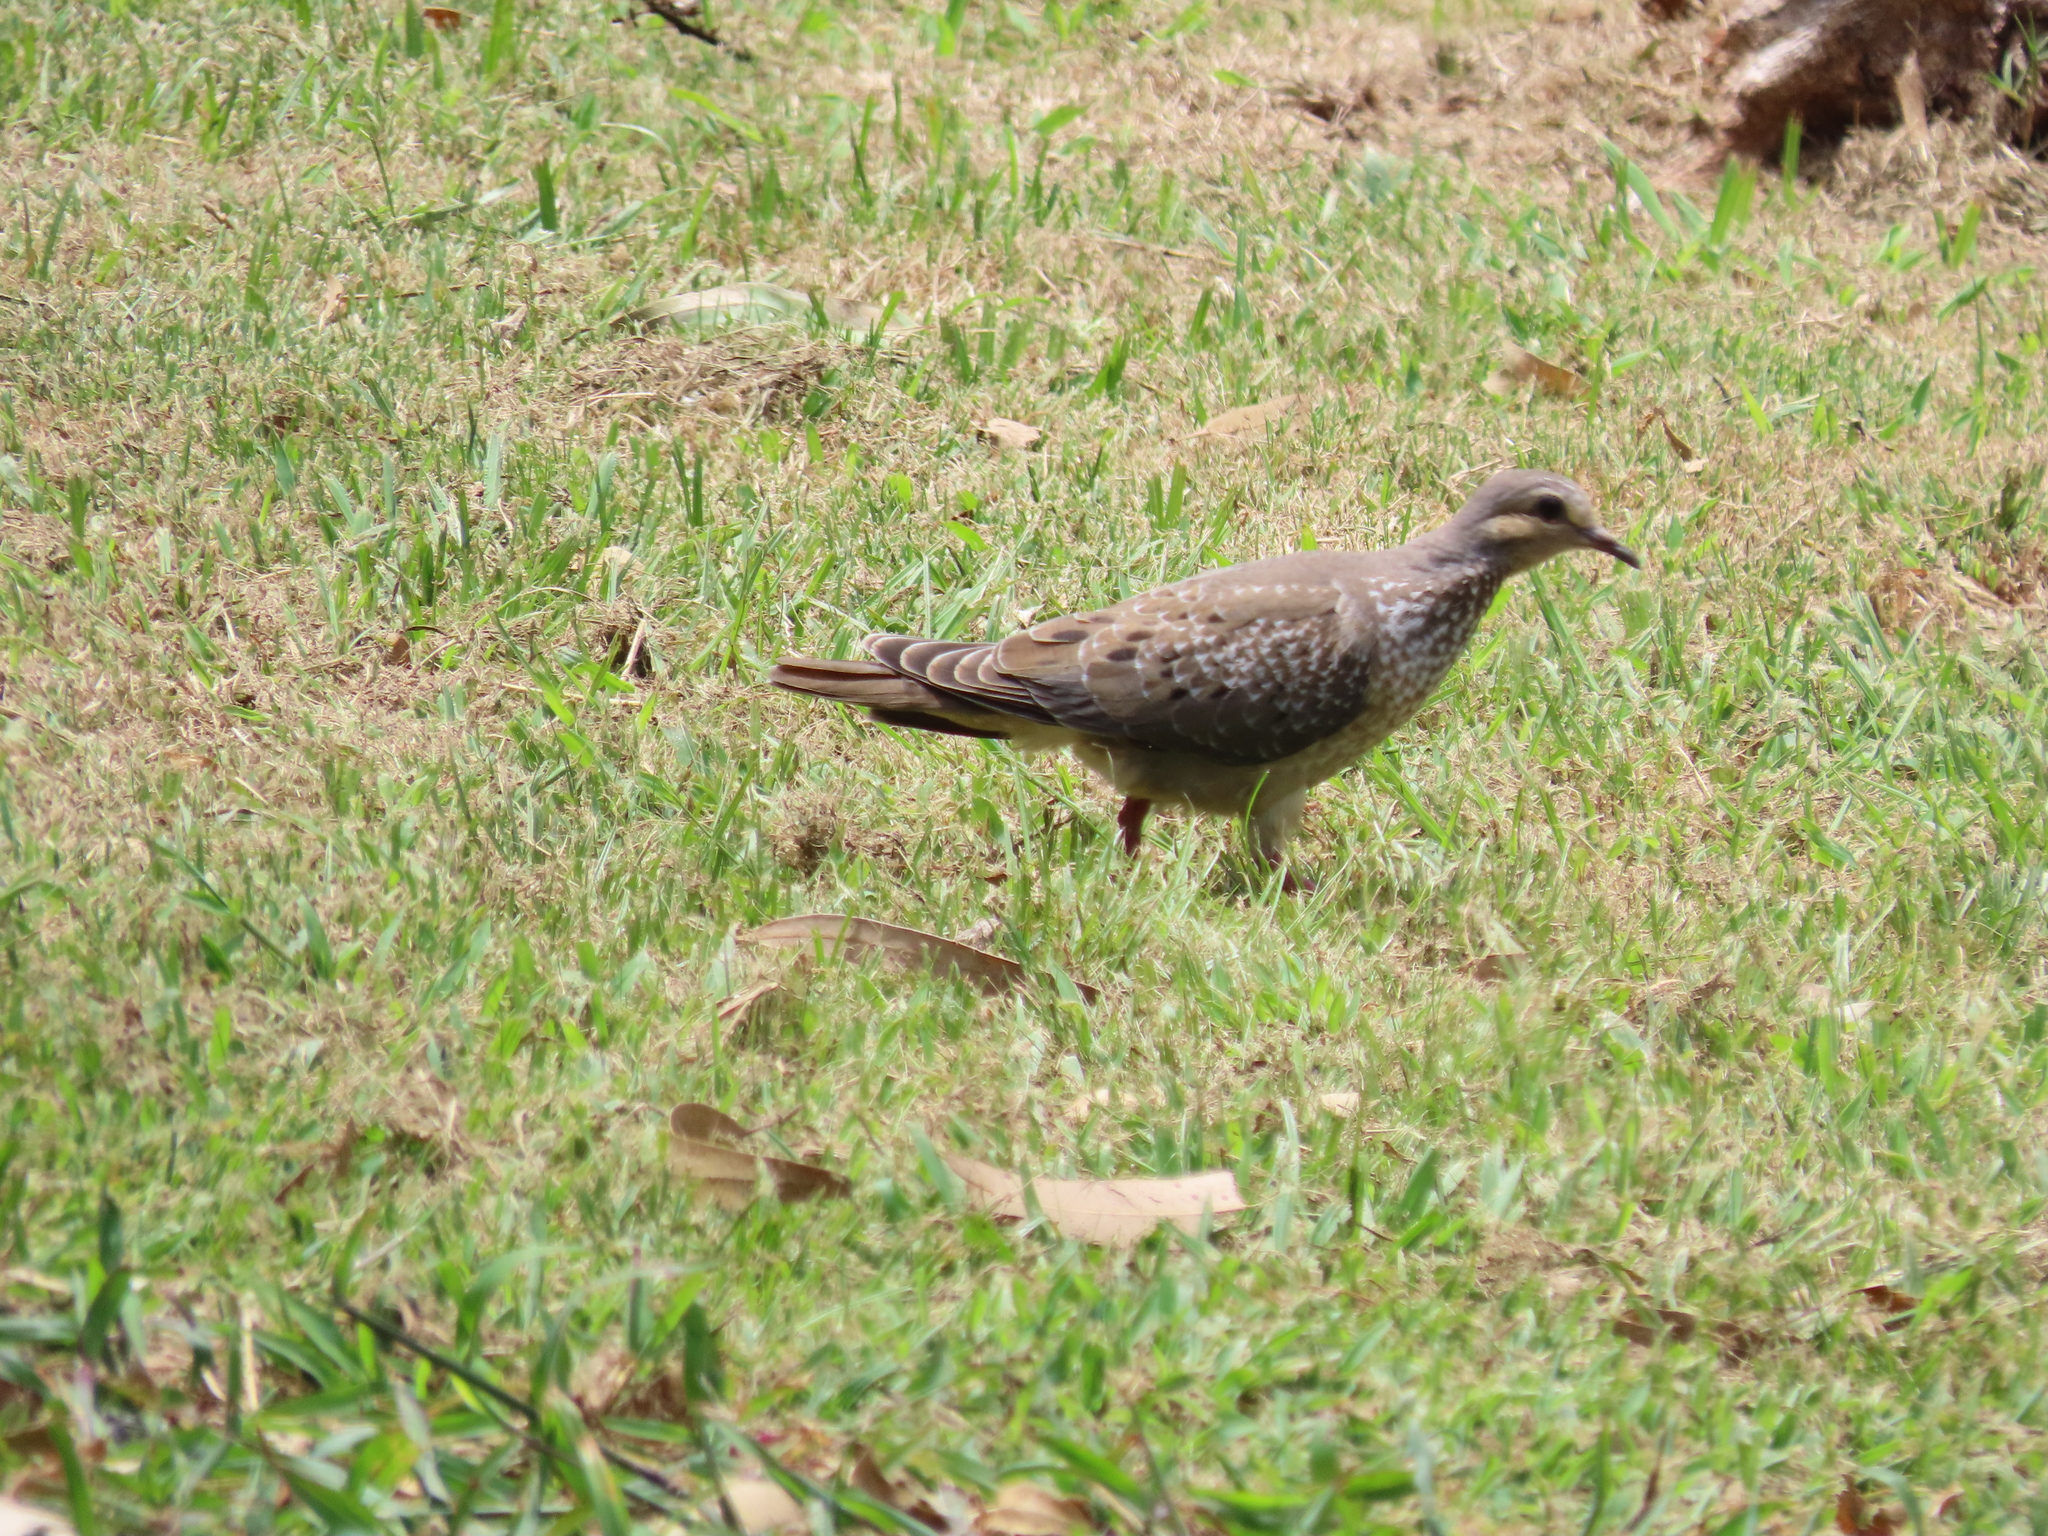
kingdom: Animalia
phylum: Chordata
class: Aves
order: Columbiformes
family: Columbidae
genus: Zenaida
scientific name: Zenaida auriculata
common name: Eared dove
